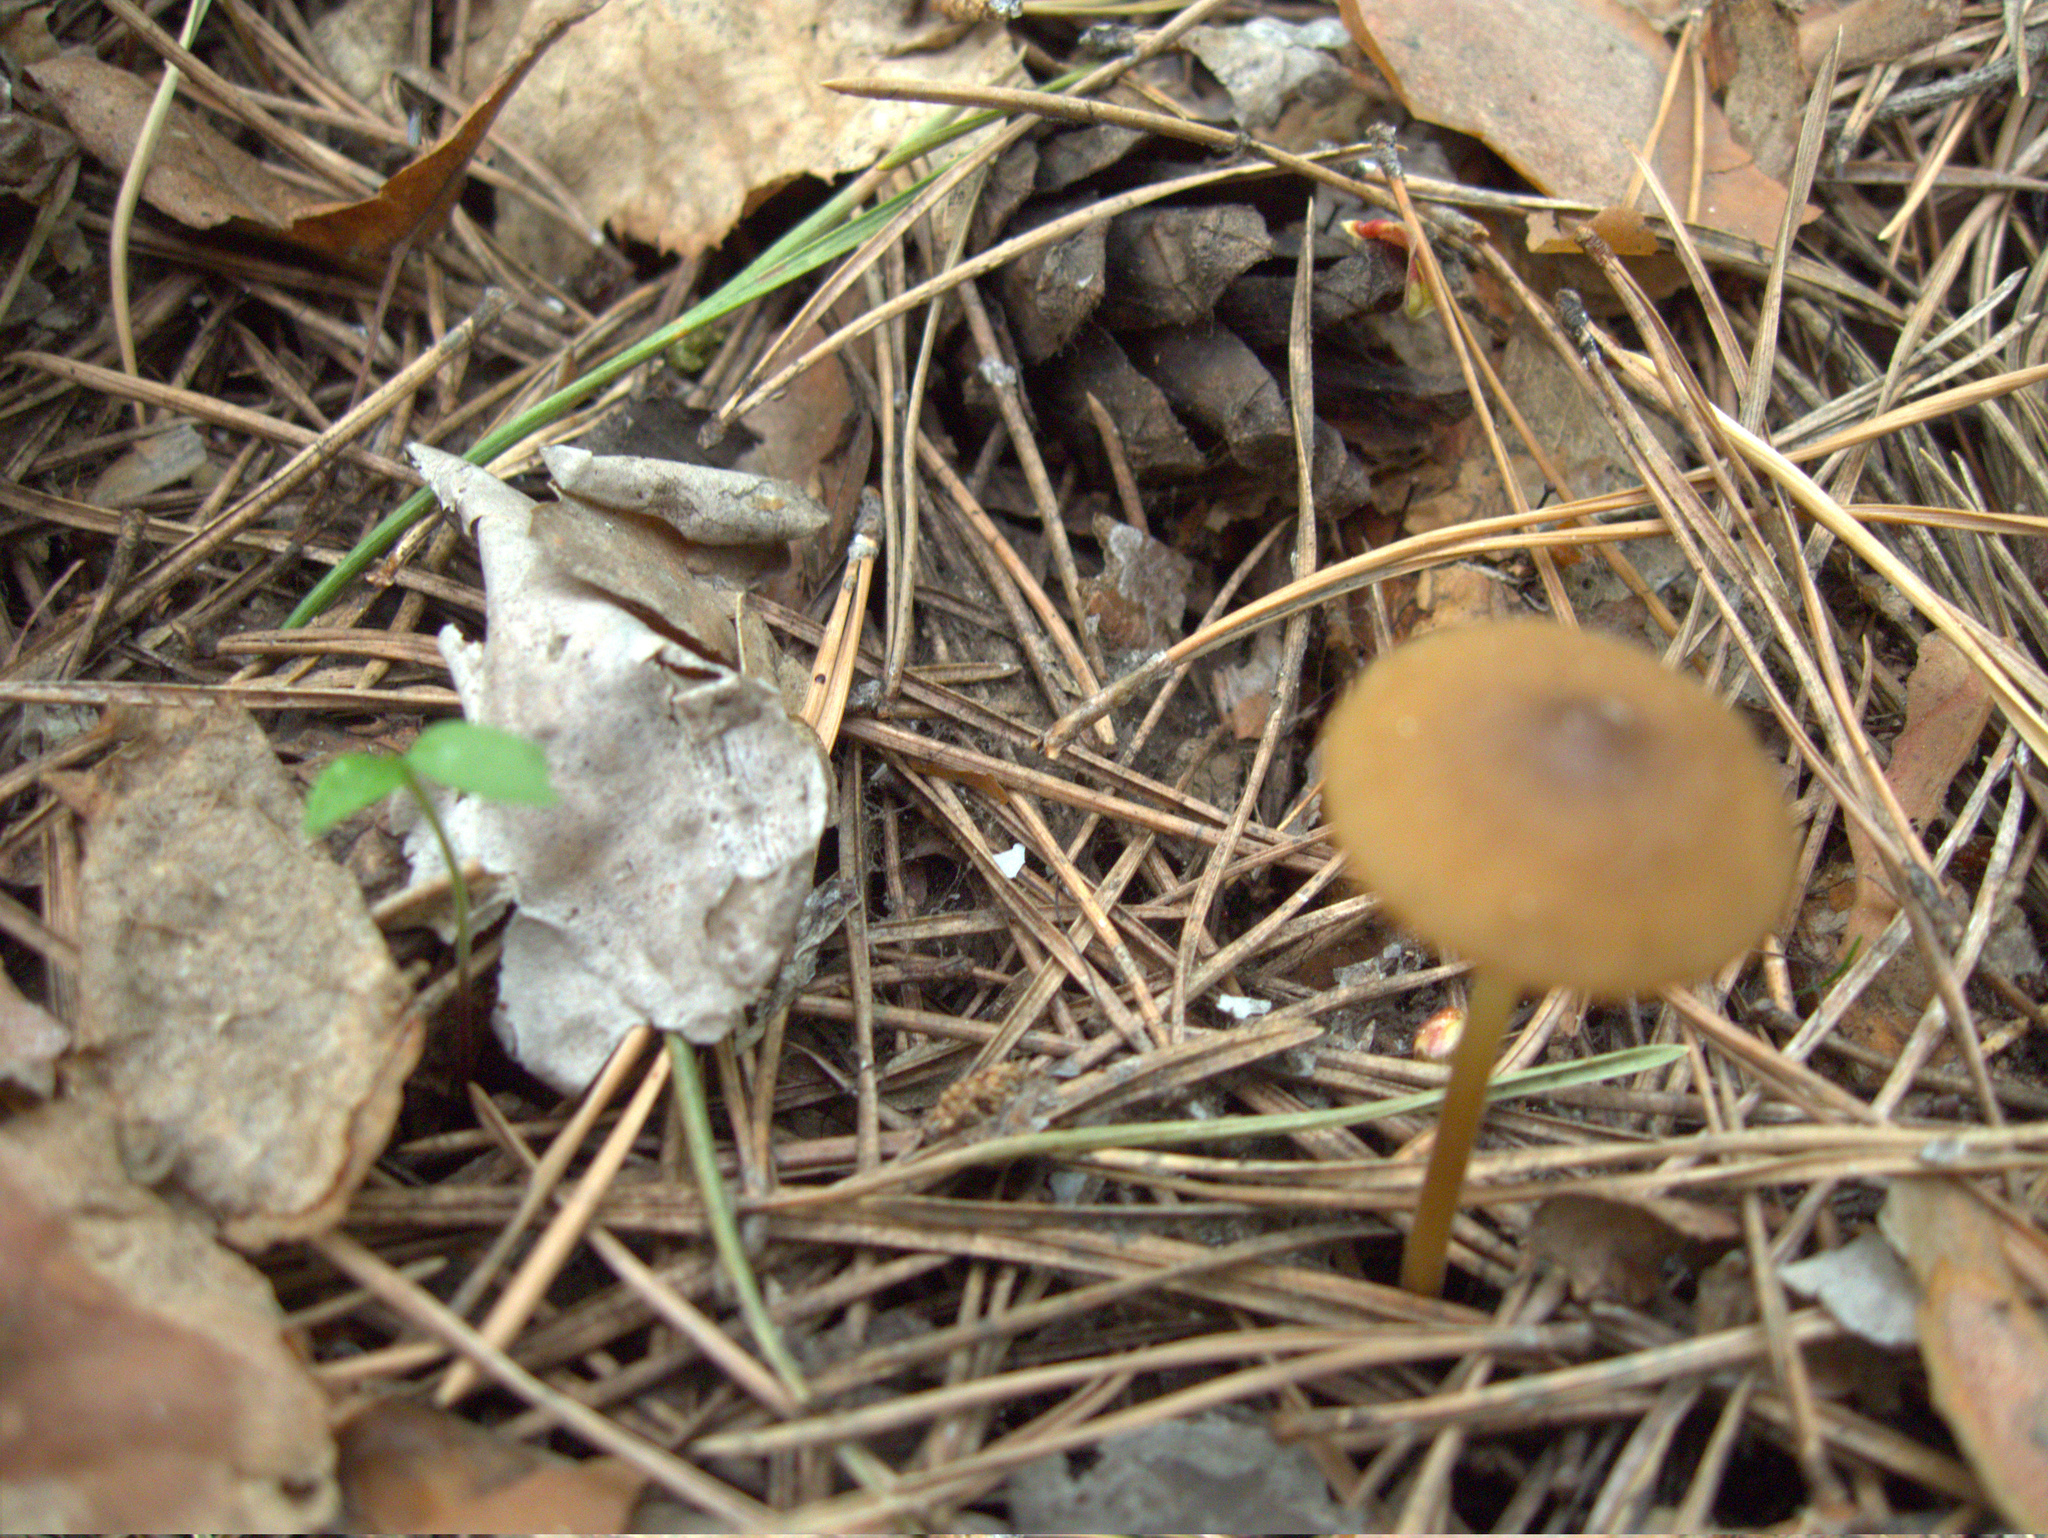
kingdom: Fungi
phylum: Basidiomycota
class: Agaricomycetes
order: Agaricales
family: Physalacriaceae
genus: Strobilurus
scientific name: Strobilurus
